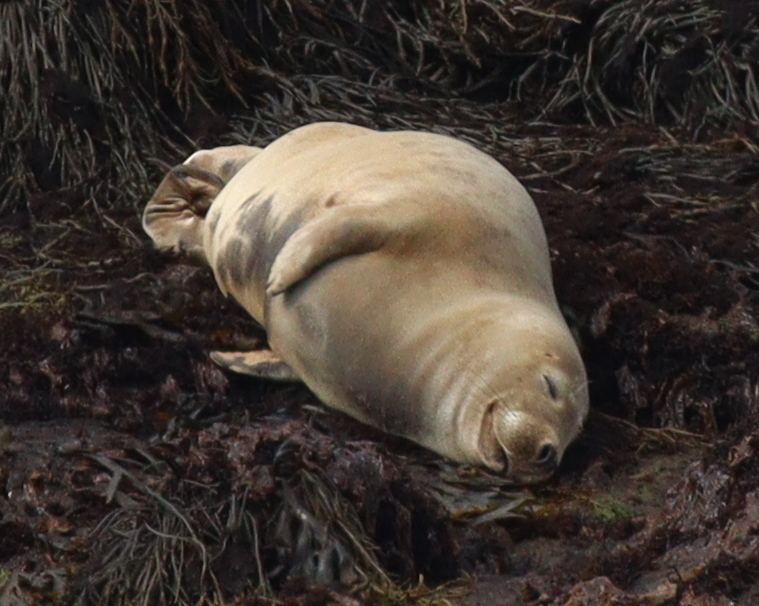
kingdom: Animalia
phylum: Chordata
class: Mammalia
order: Carnivora
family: Phocidae
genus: Halichoerus
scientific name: Halichoerus grypus
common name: Grey seal
